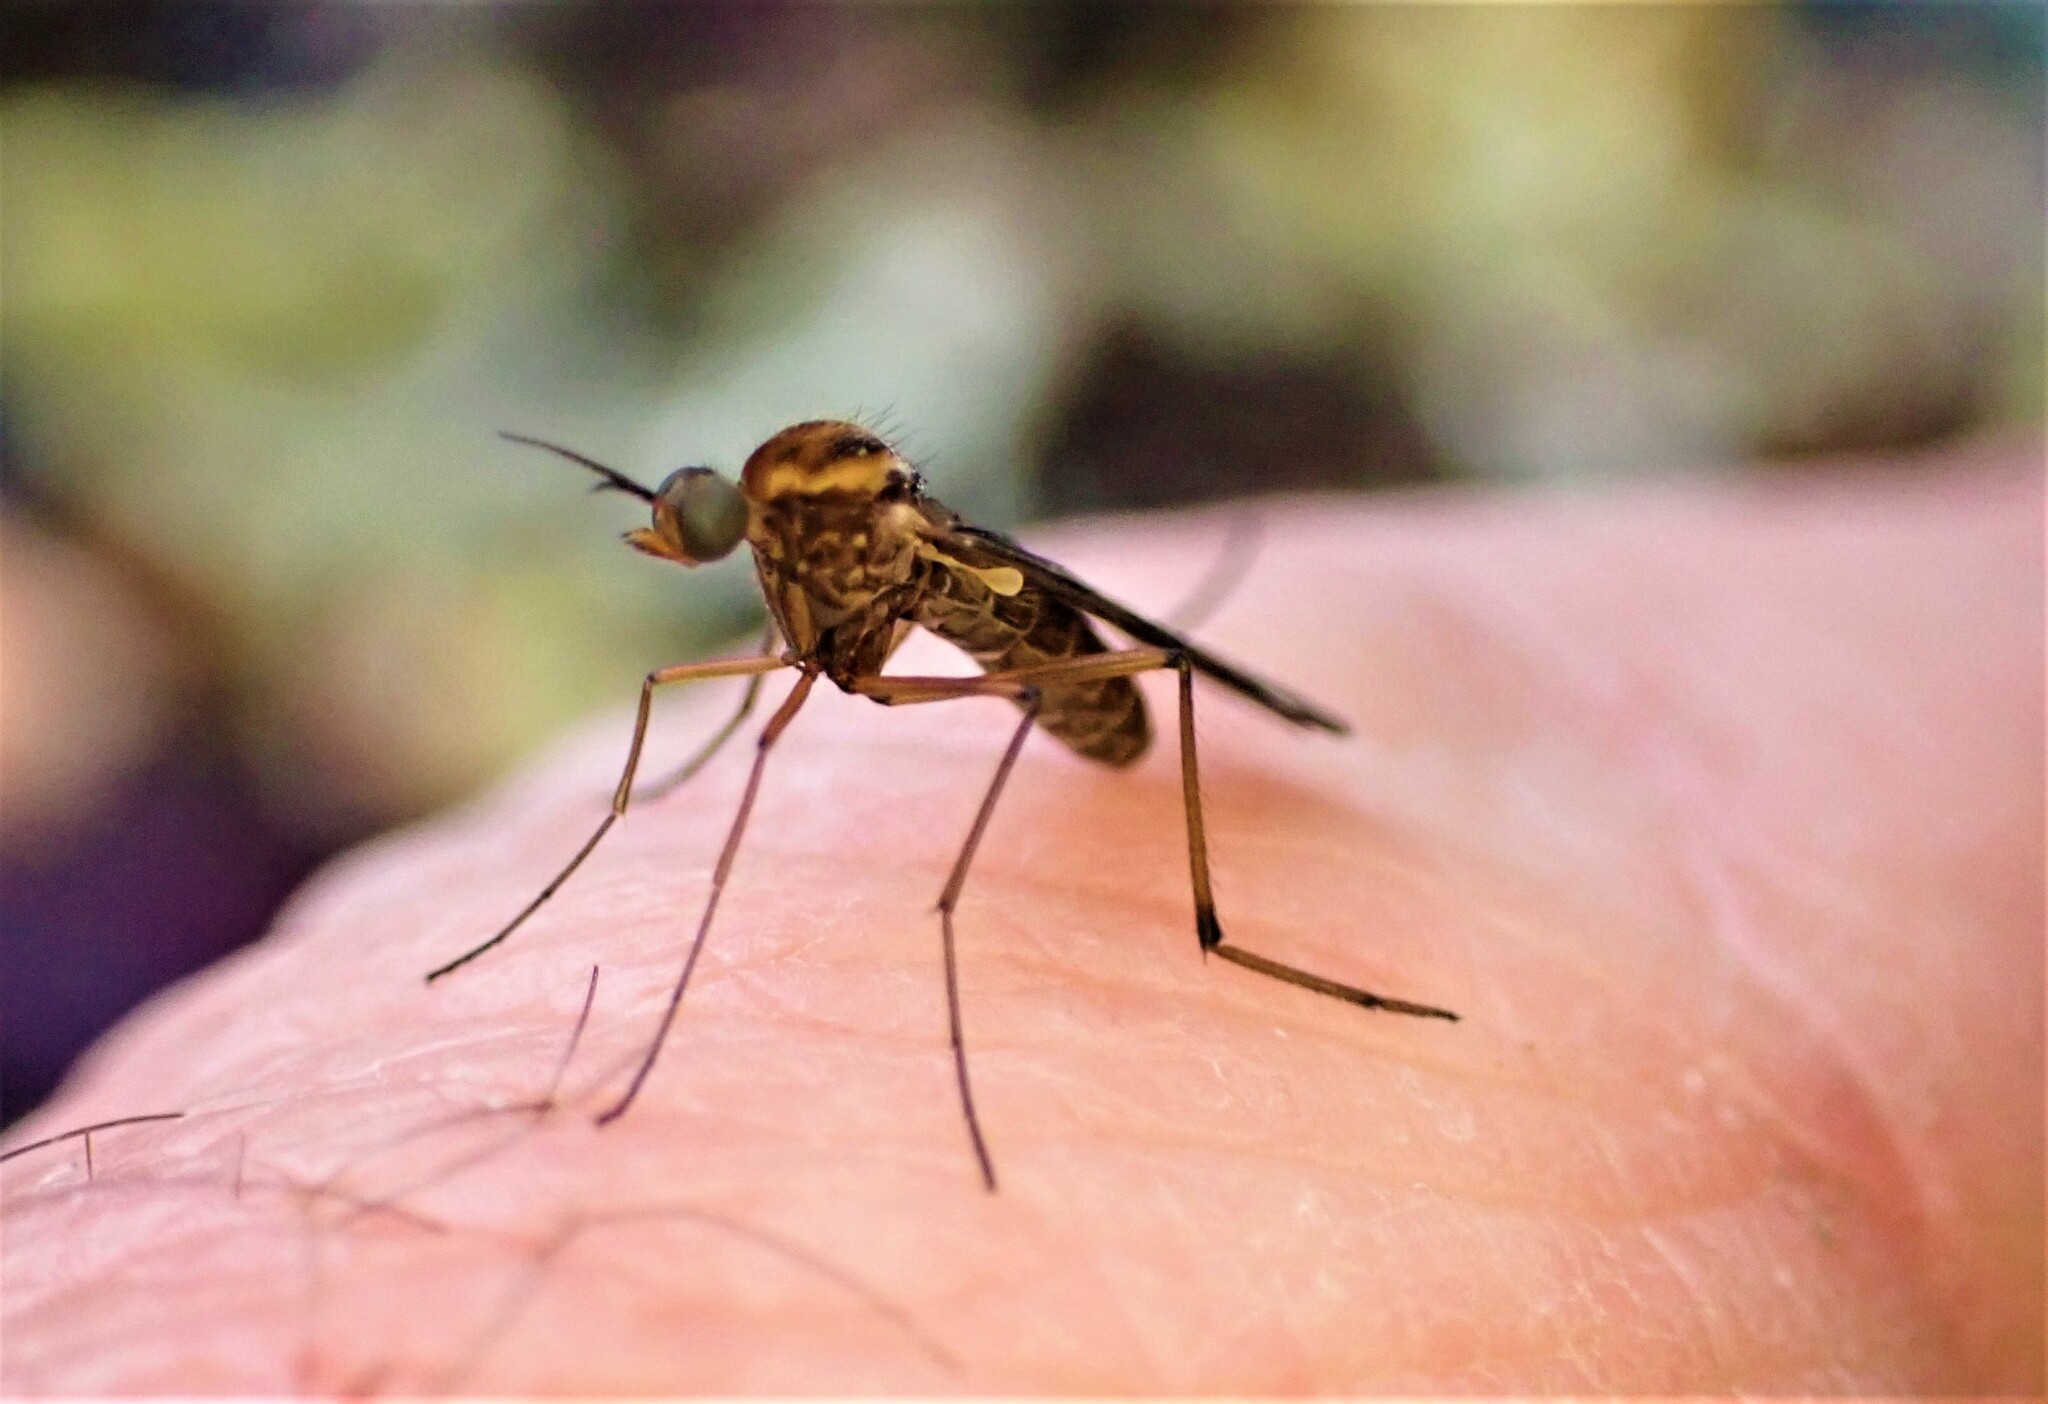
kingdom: Animalia
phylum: Arthropoda
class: Insecta
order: Diptera
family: Anisopodidae
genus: Sylvicola
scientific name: Sylvicola notatus
